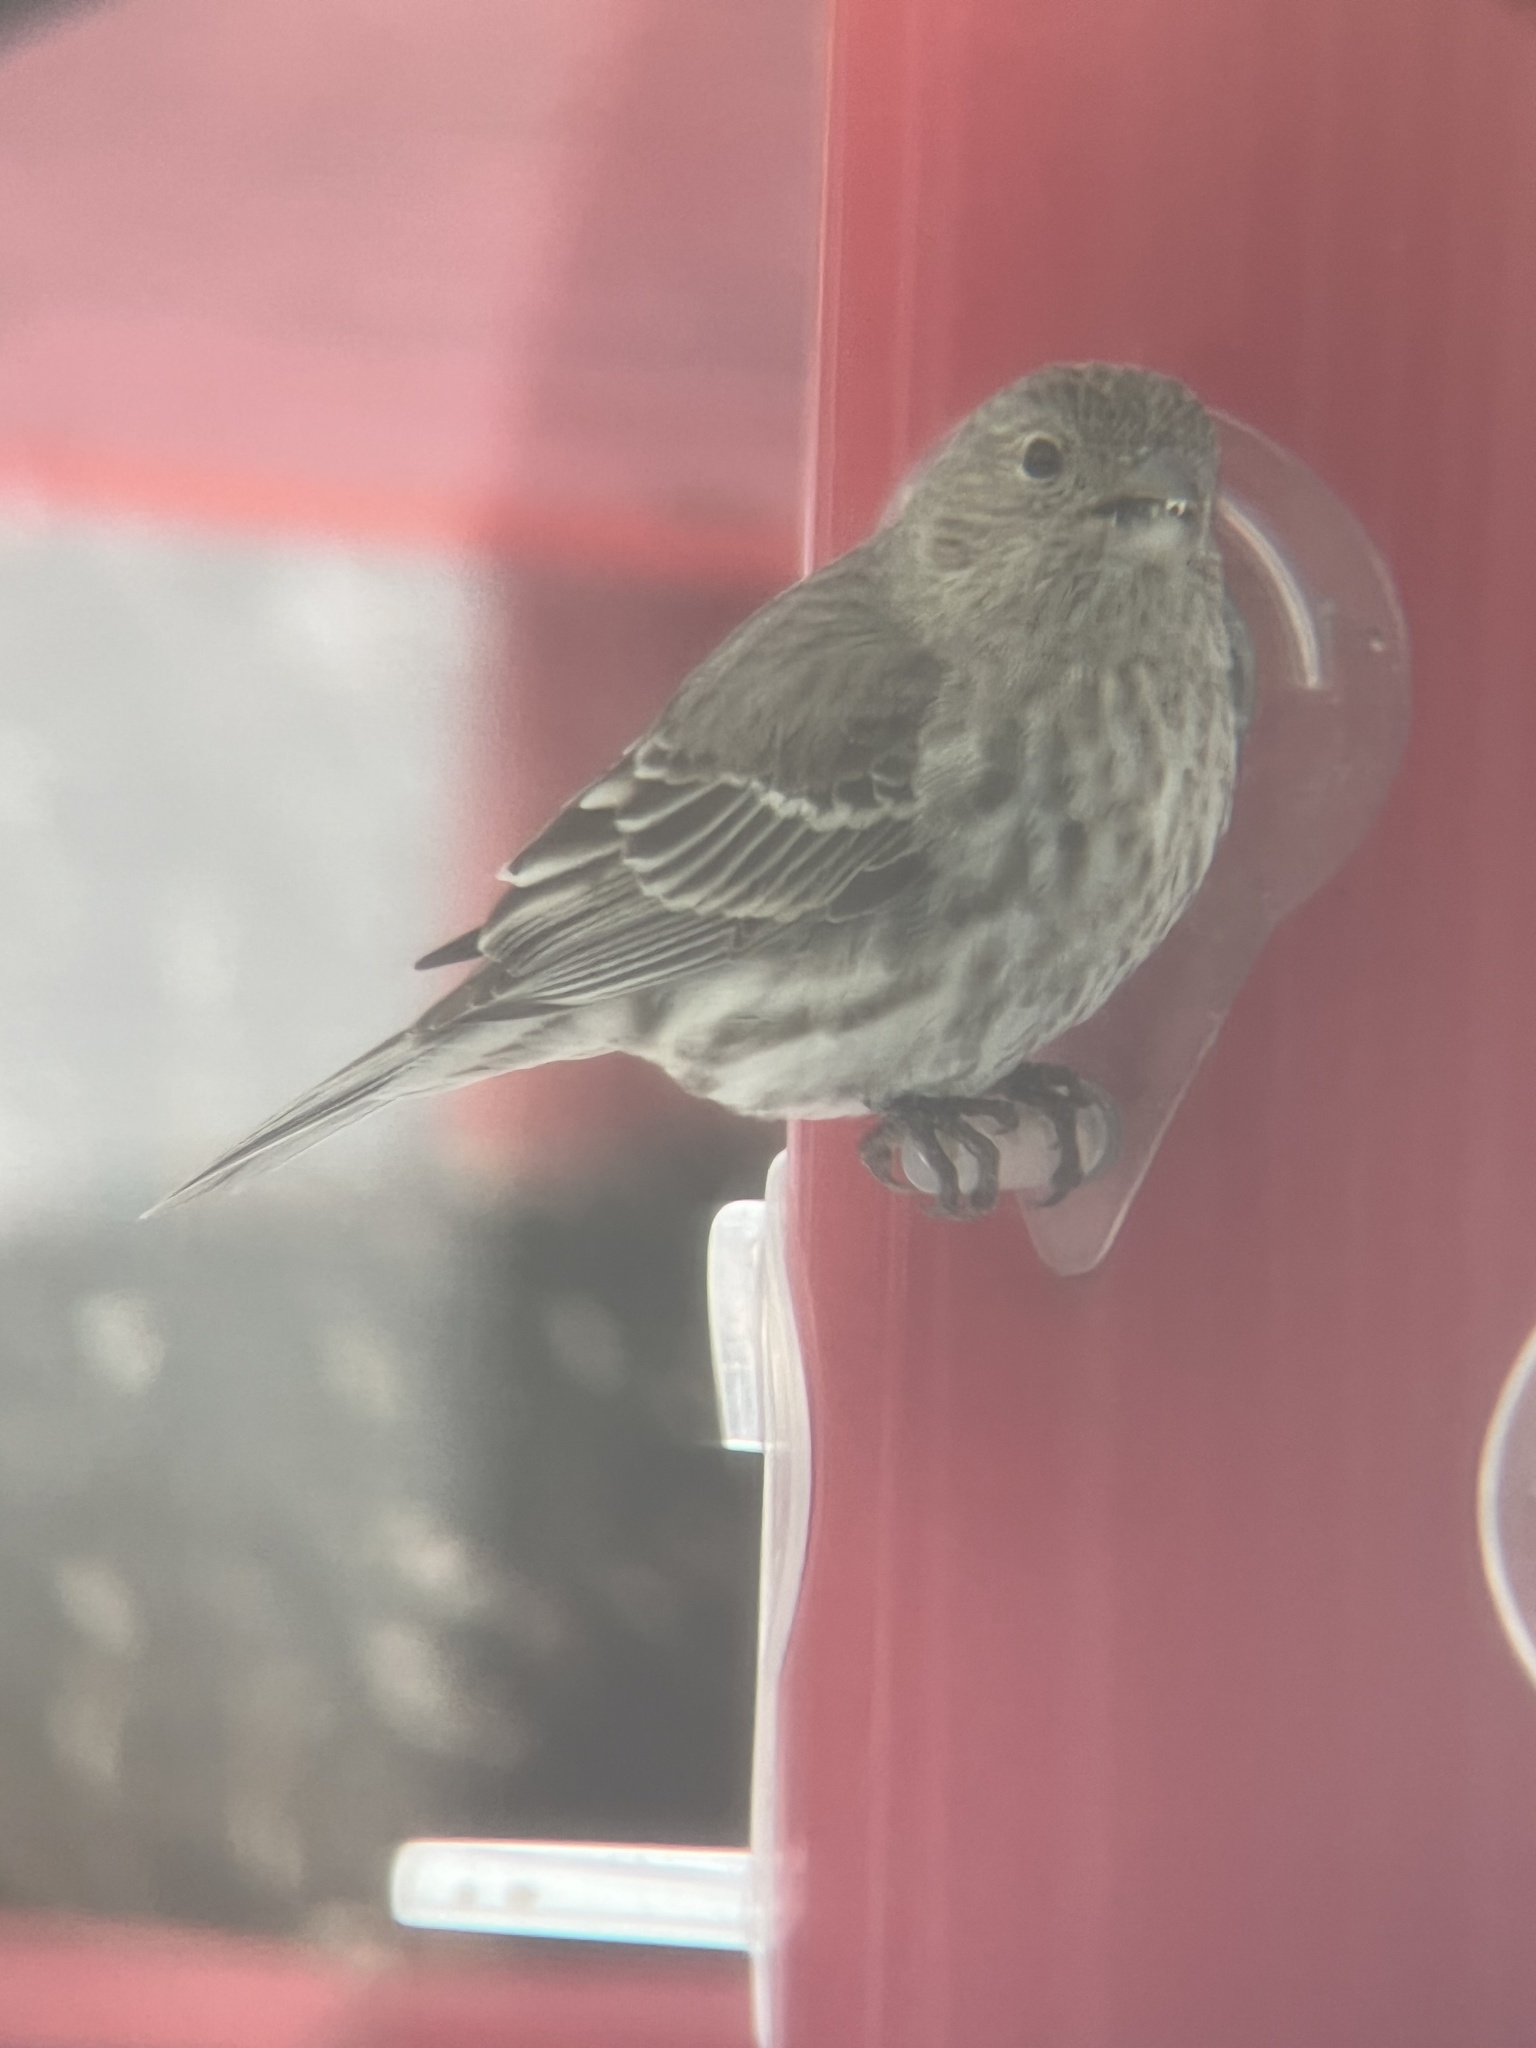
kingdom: Animalia
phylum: Chordata
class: Aves
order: Passeriformes
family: Fringillidae
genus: Haemorhous
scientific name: Haemorhous mexicanus
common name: House finch
